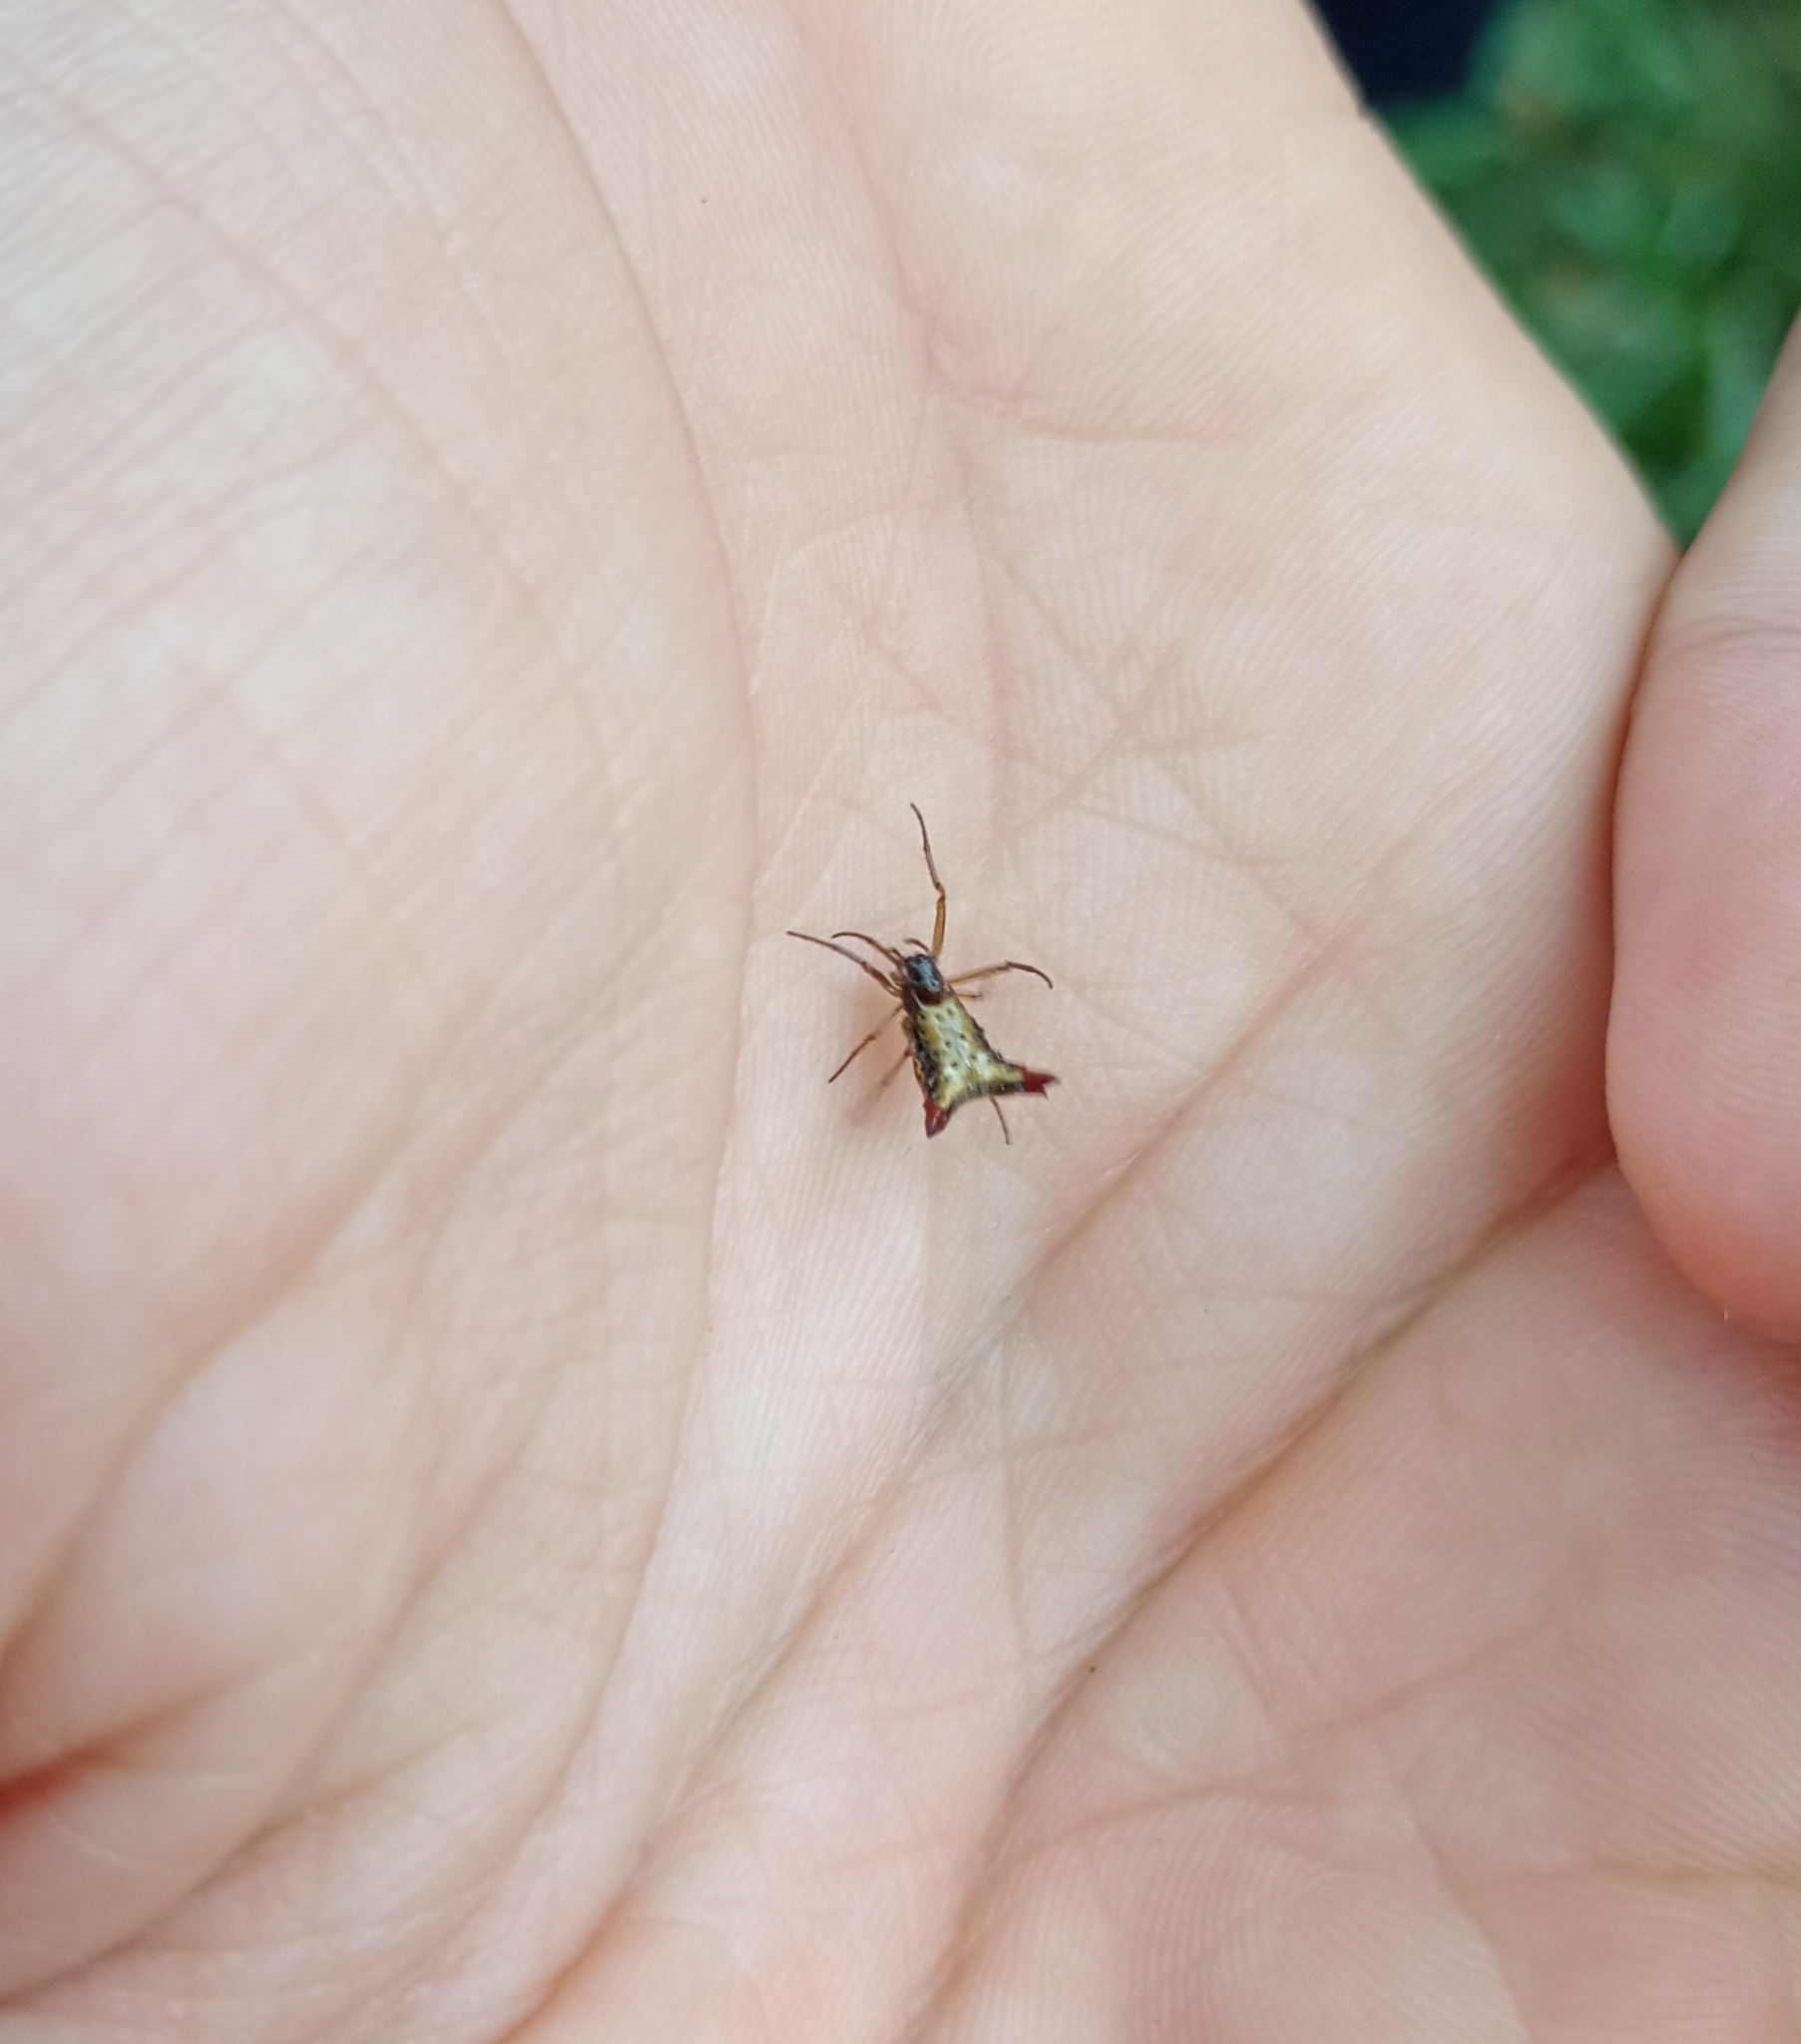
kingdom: Animalia
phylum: Arthropoda
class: Arachnida
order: Araneae
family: Araneidae
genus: Micrathena
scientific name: Micrathena plana
